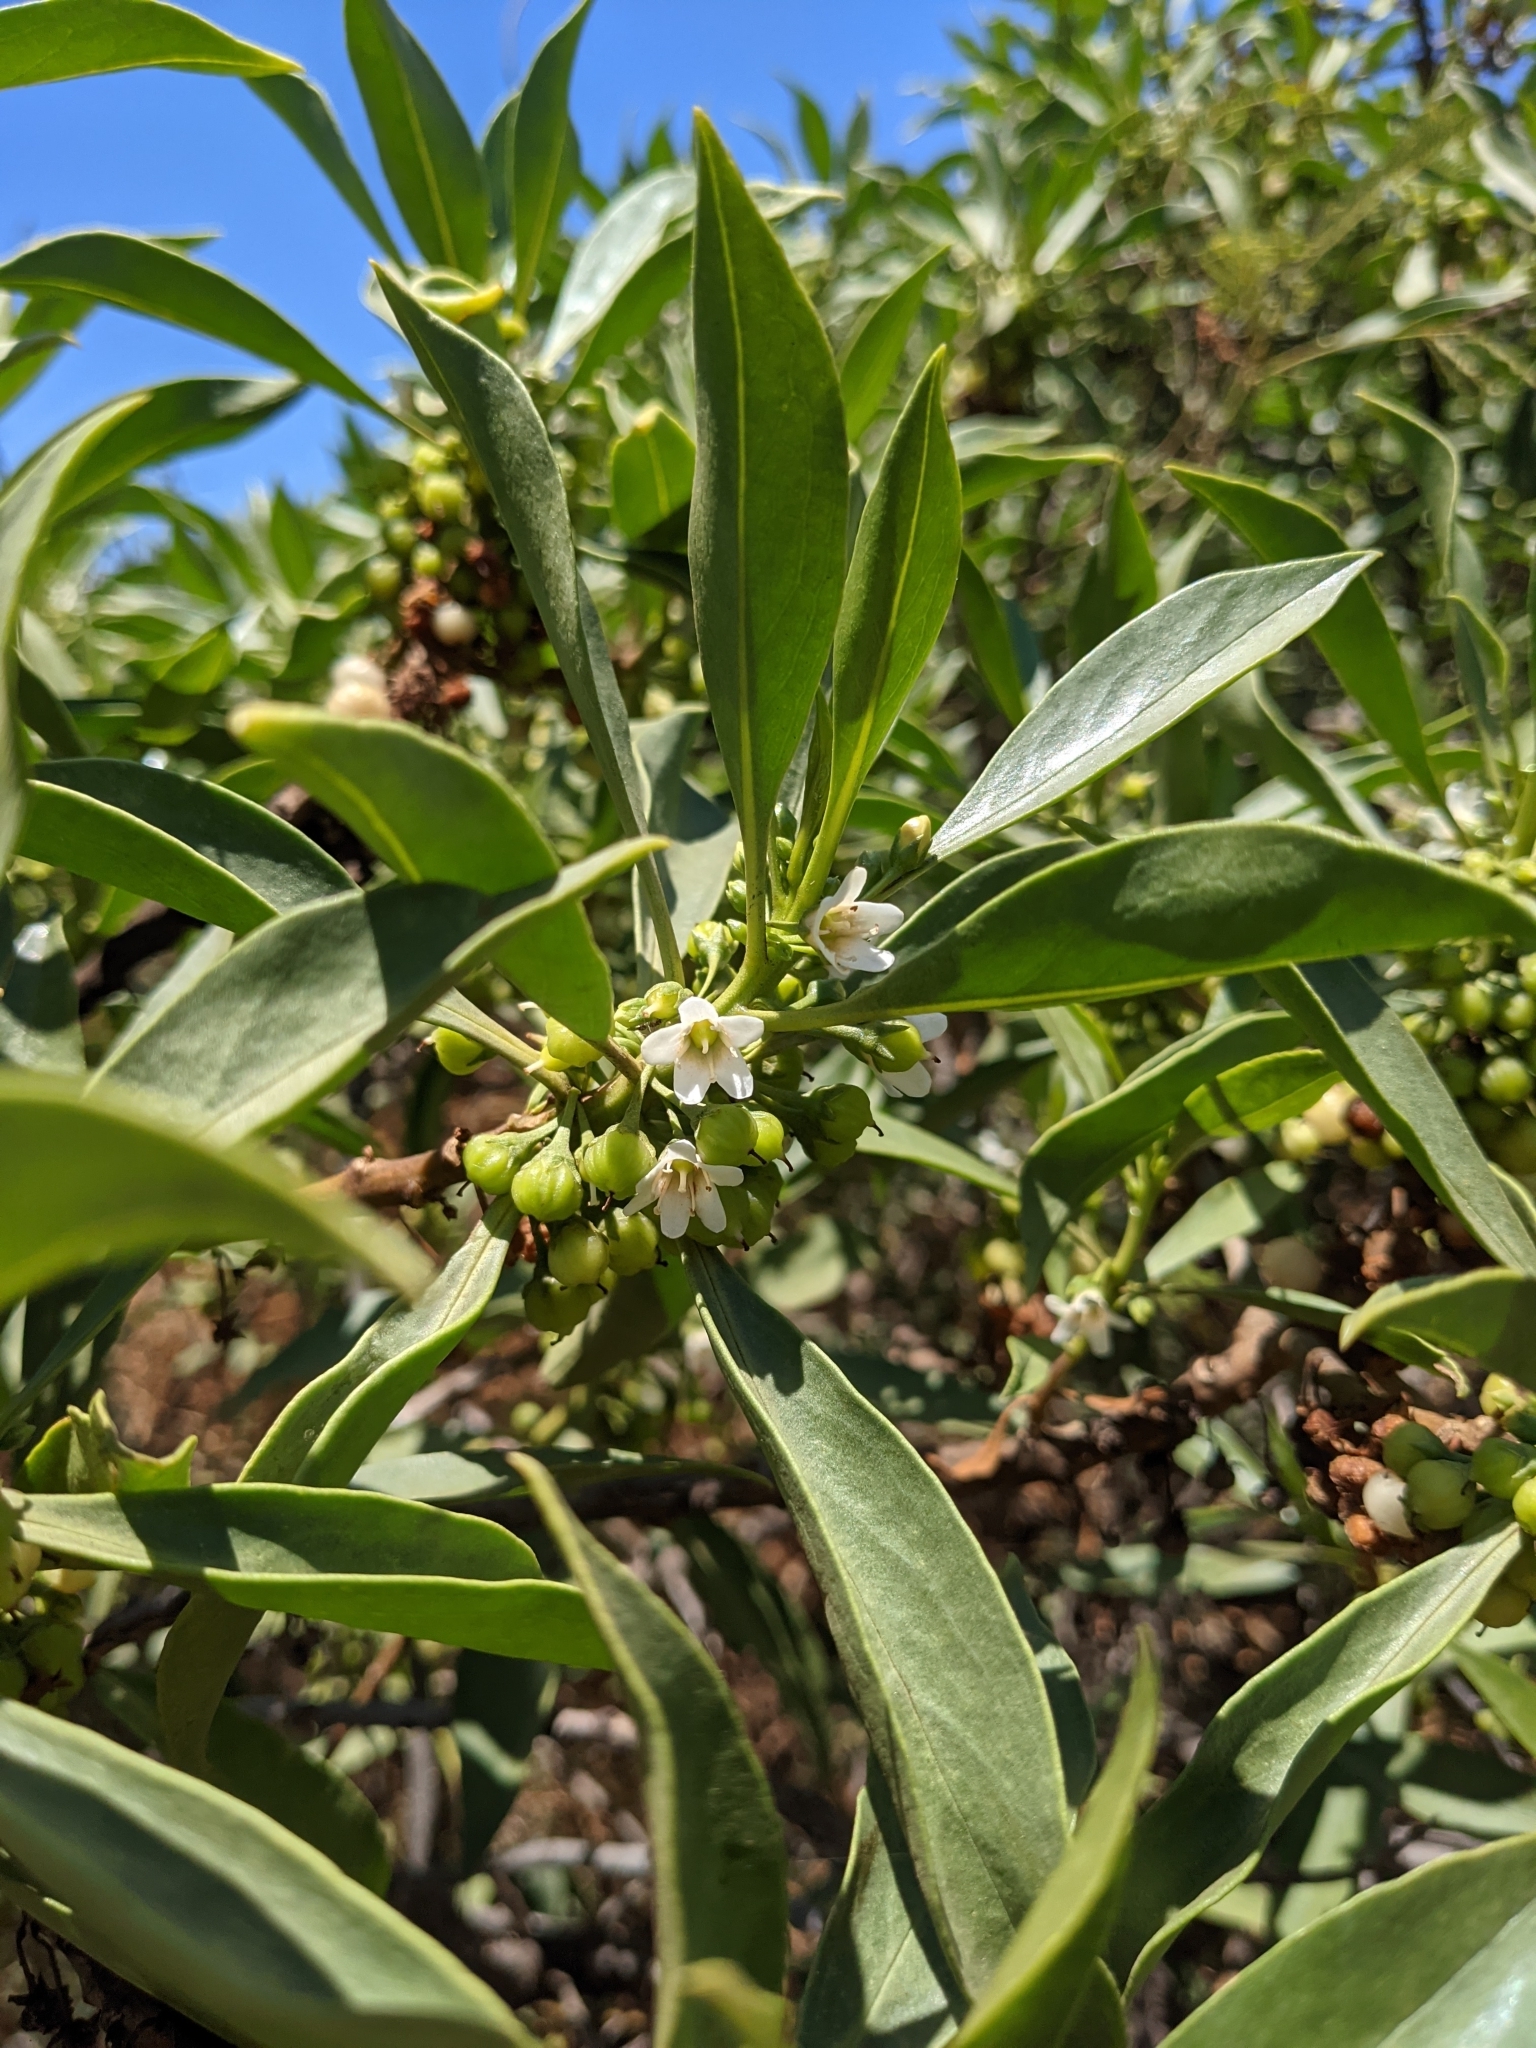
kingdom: Plantae
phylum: Tracheophyta
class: Magnoliopsida
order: Lamiales
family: Scrophulariaceae
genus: Myoporum
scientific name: Myoporum sandwicense
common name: Bastard-sandalwood
